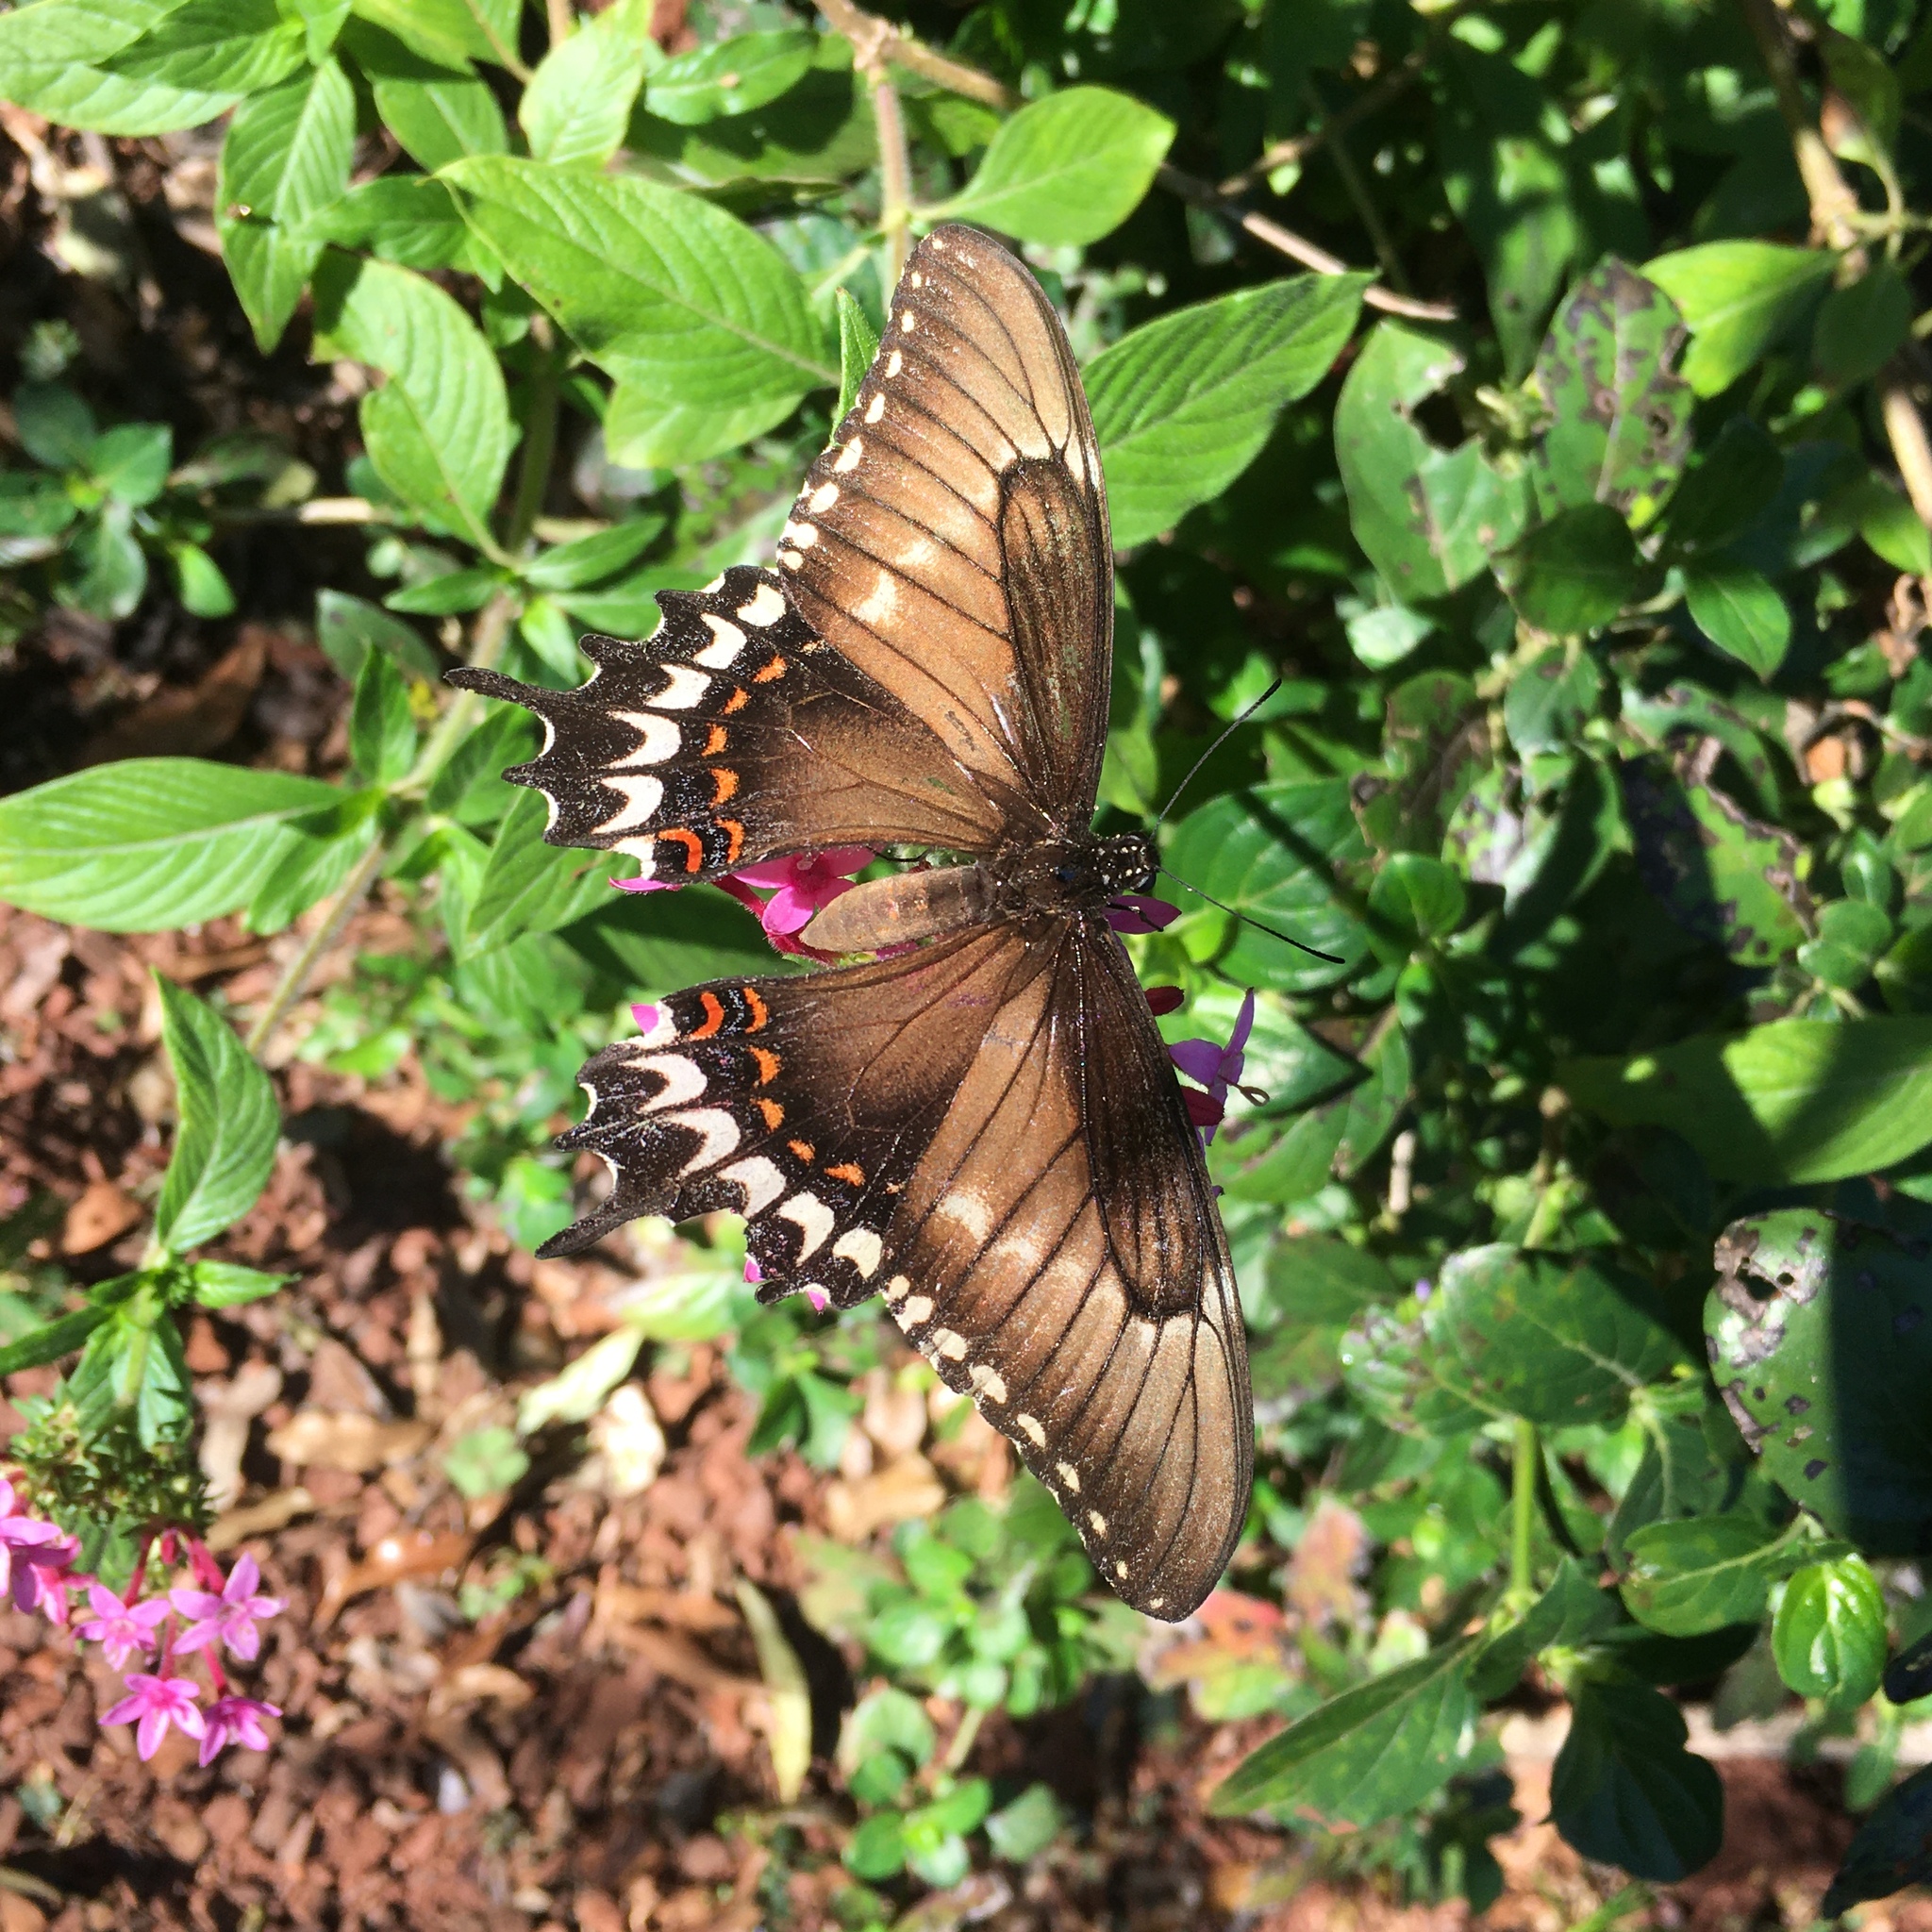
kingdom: Animalia
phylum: Arthropoda
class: Insecta
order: Lepidoptera
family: Papilionidae
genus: Papilio
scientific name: Papilio astyalus
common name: Astyalus swallowtail
